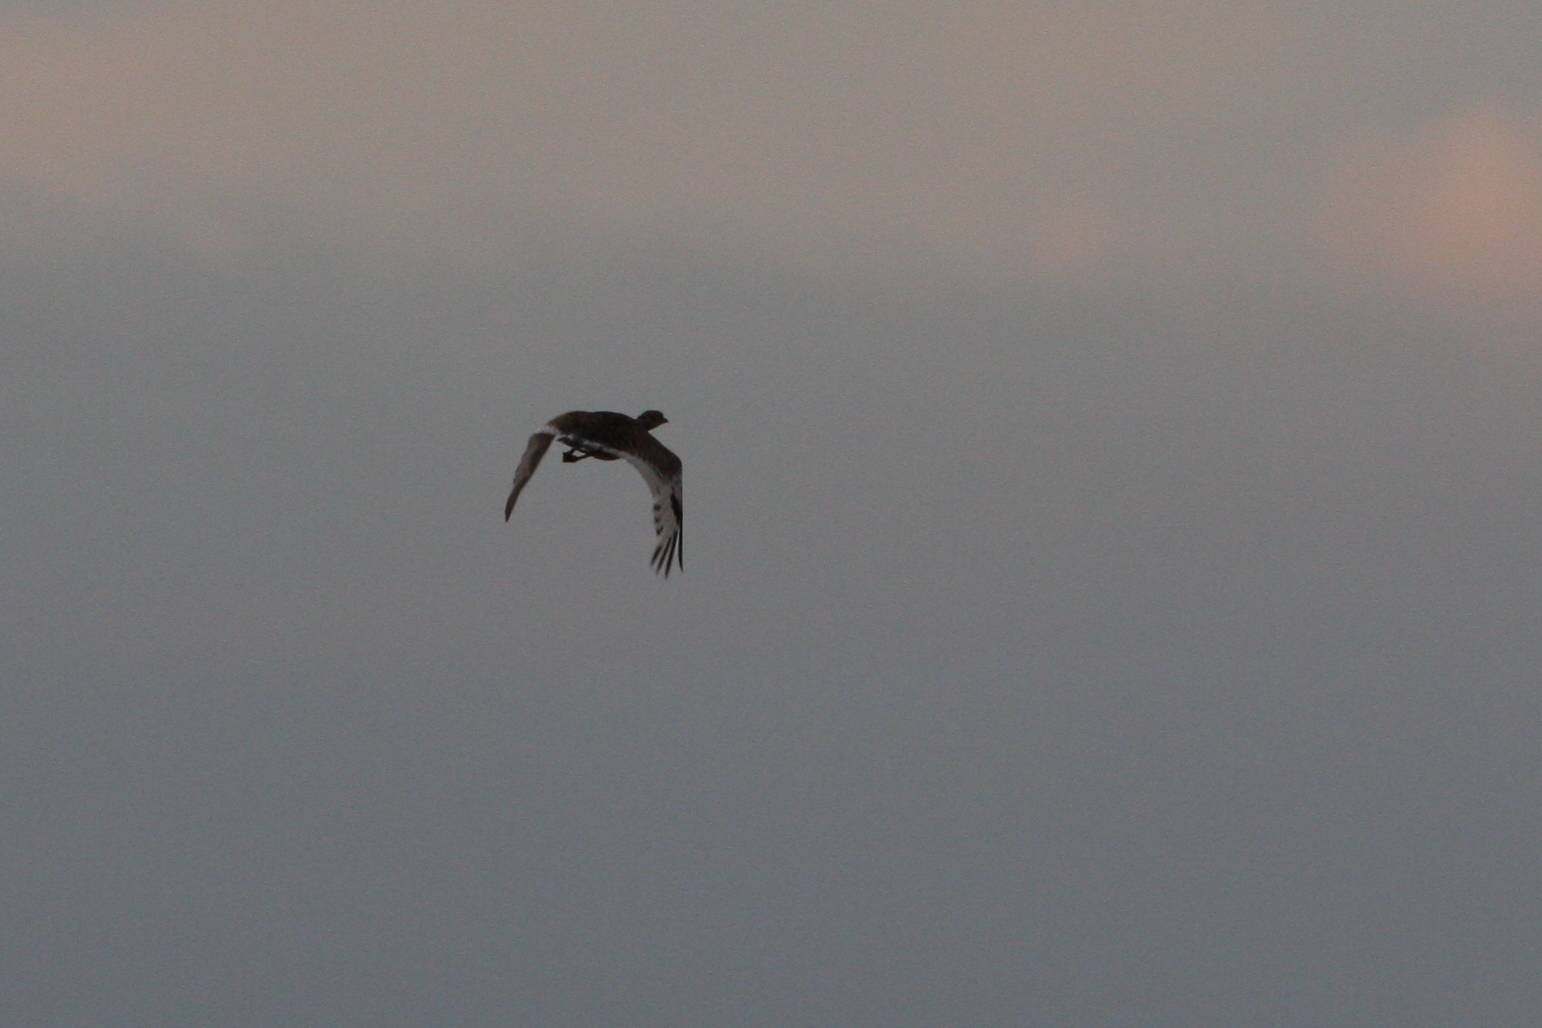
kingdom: Animalia
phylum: Chordata
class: Aves
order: Otidiformes
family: Otididae
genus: Tetrax
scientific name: Tetrax tetrax
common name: Little bustard
